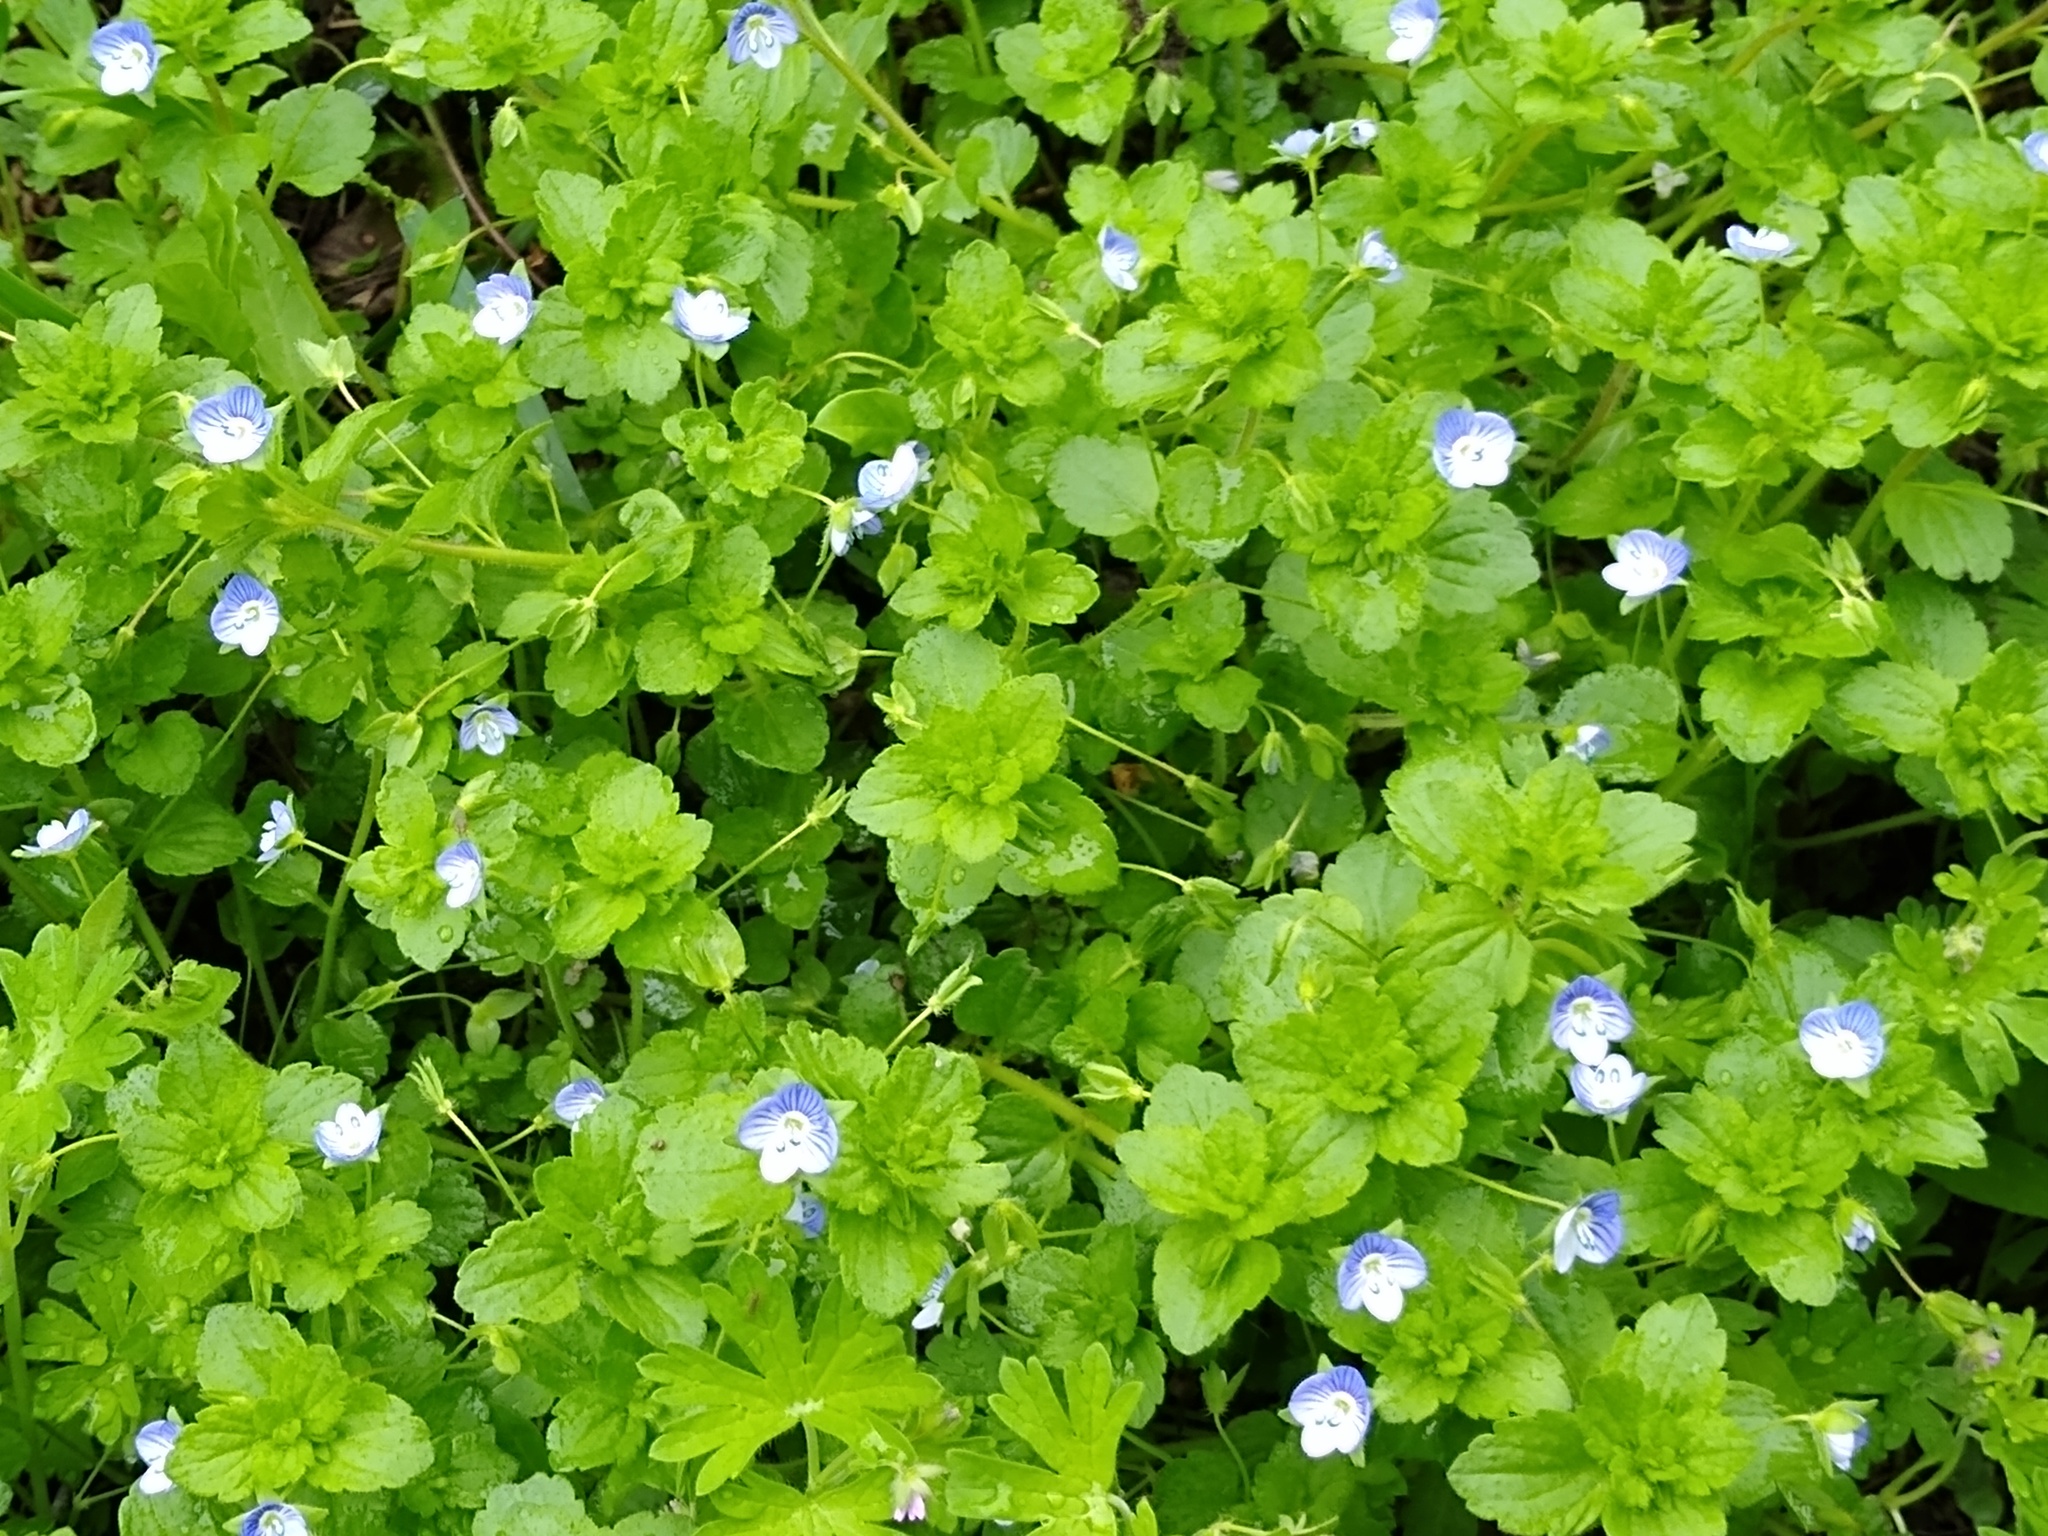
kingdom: Plantae
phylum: Tracheophyta
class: Magnoliopsida
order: Lamiales
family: Plantaginaceae
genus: Veronica
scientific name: Veronica persica
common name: Common field-speedwell
